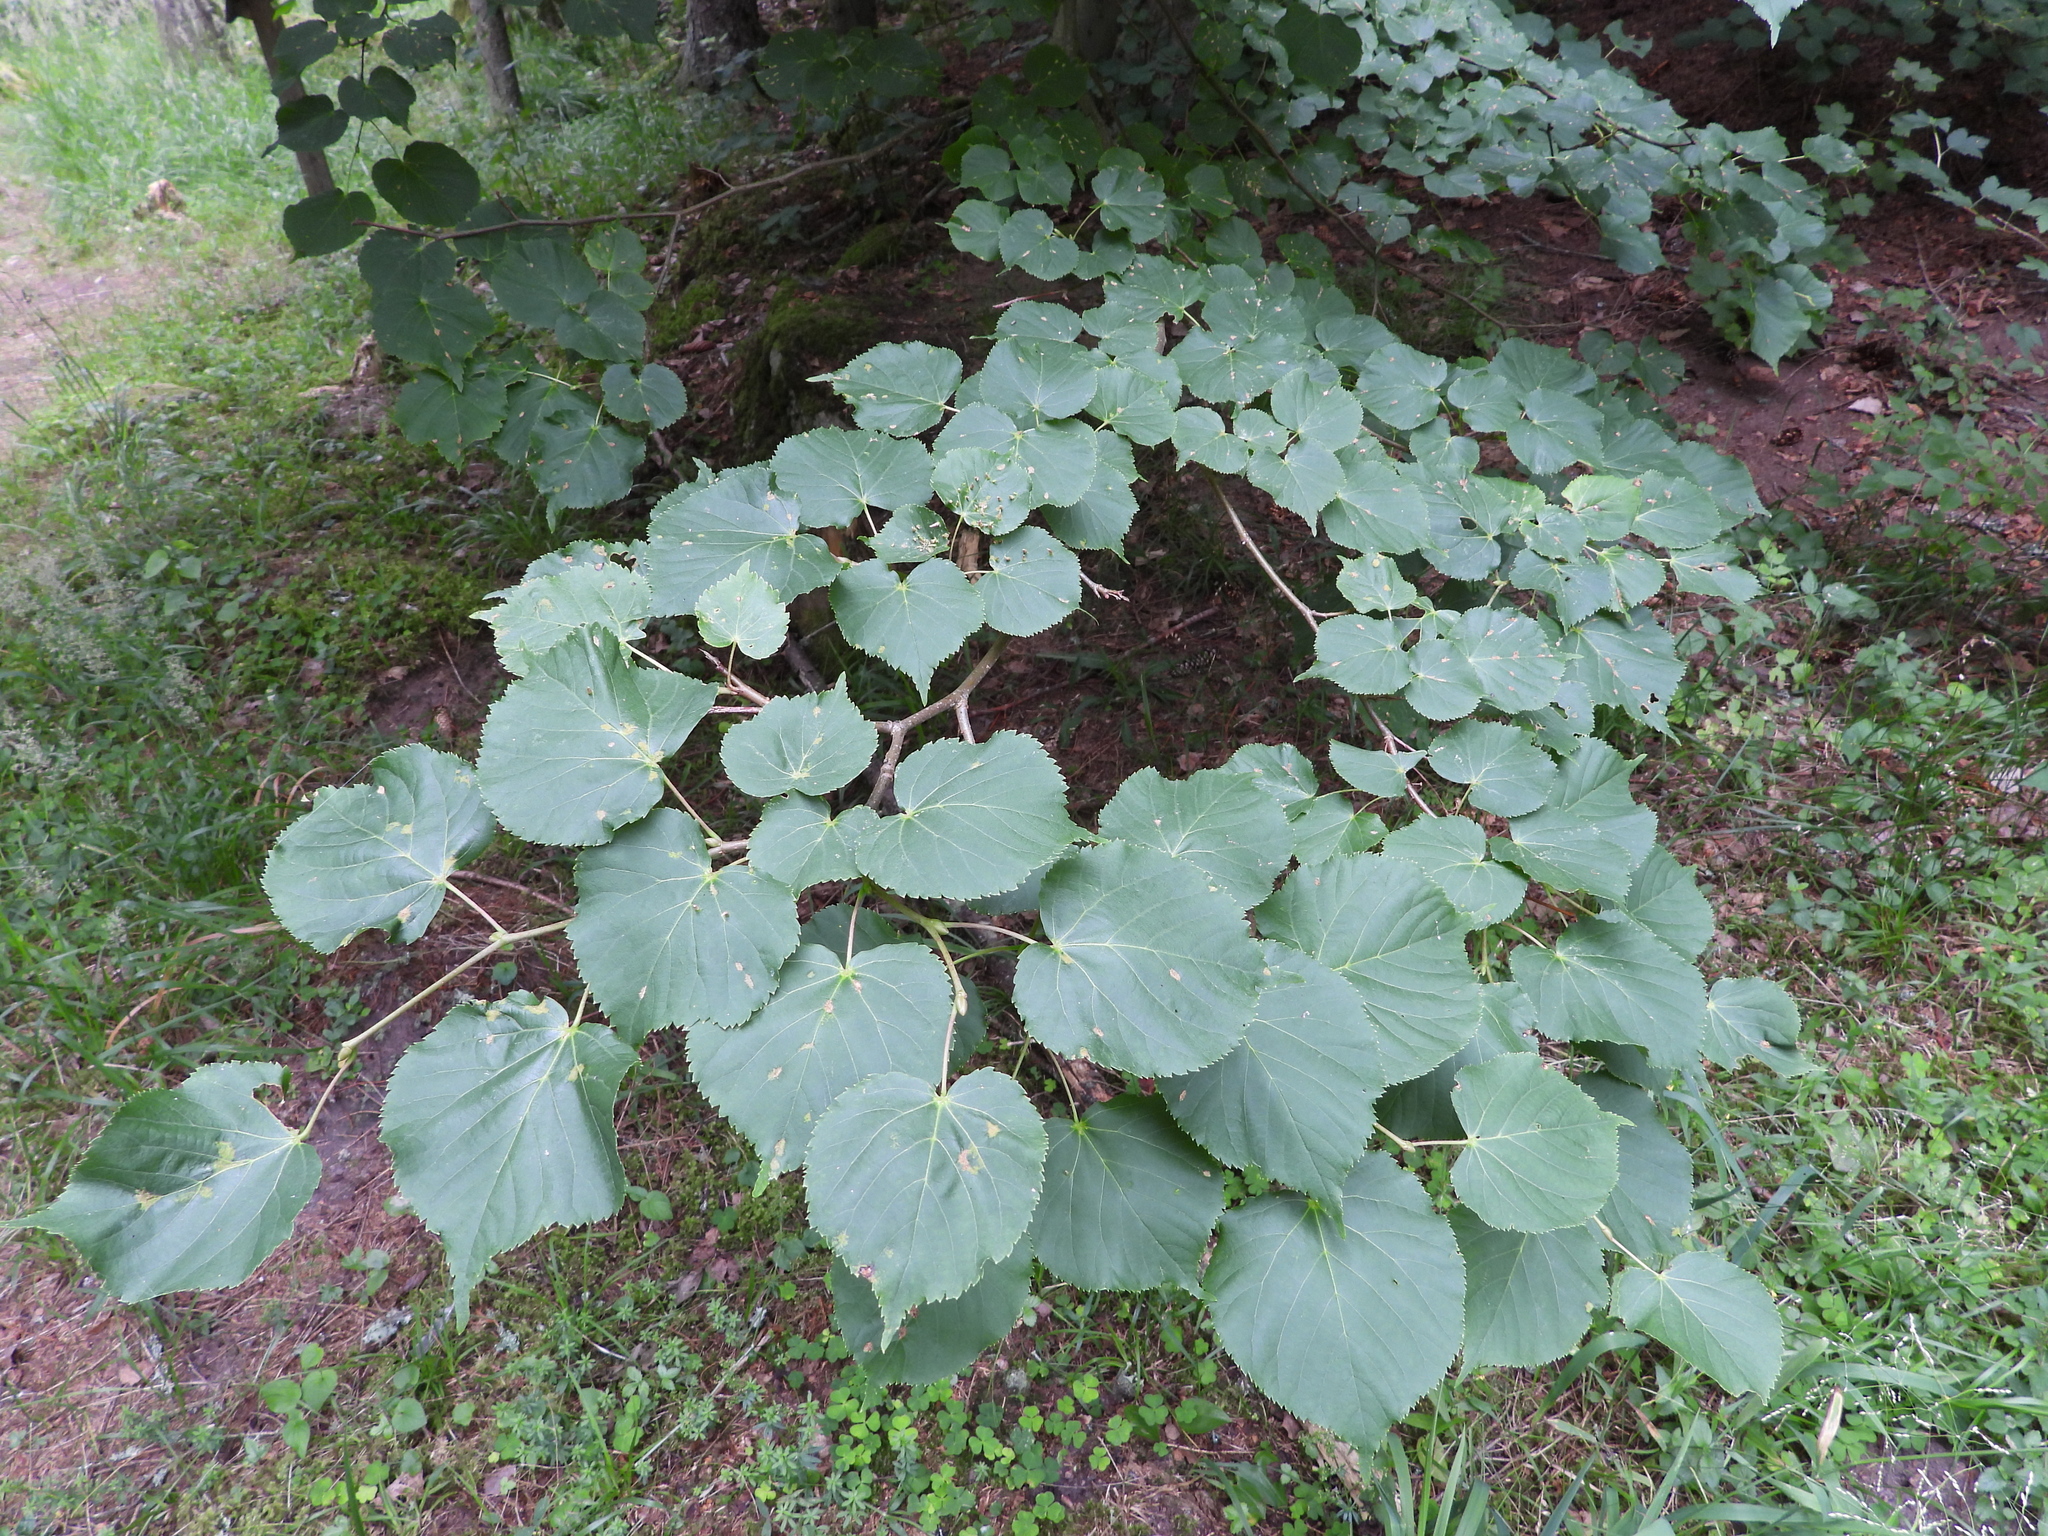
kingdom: Plantae
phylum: Tracheophyta
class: Magnoliopsida
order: Malvales
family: Malvaceae
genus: Tilia
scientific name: Tilia cordata
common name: Small-leaved lime
